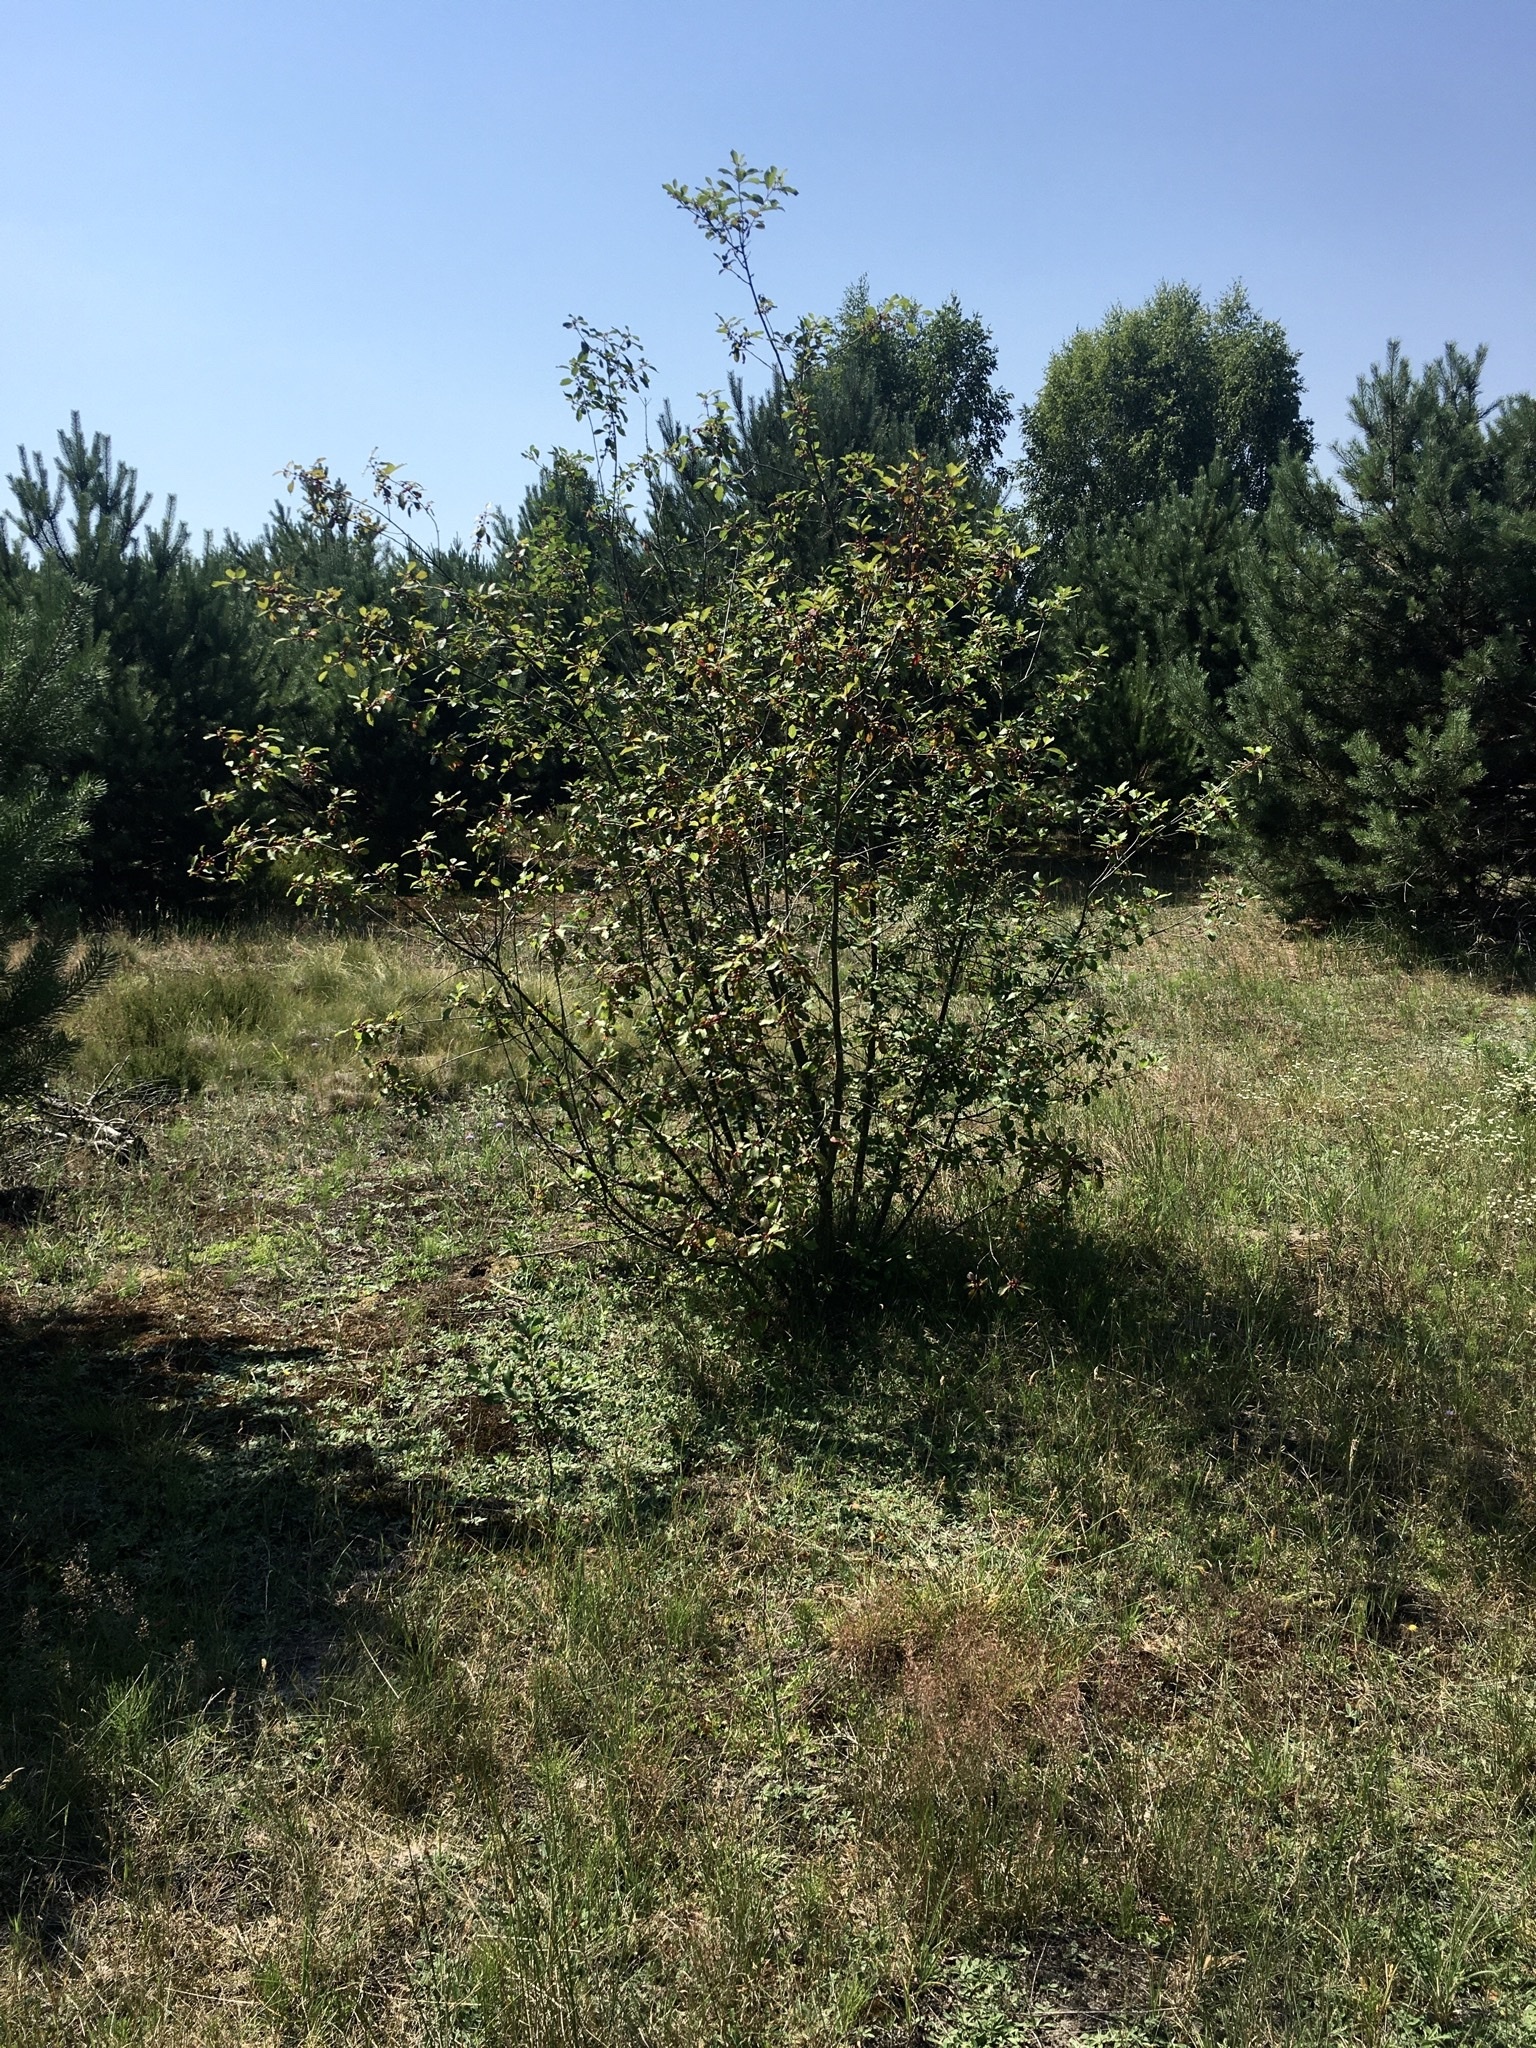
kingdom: Plantae
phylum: Tracheophyta
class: Magnoliopsida
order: Rosales
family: Rhamnaceae
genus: Frangula
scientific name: Frangula alnus
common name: Alder buckthorn
